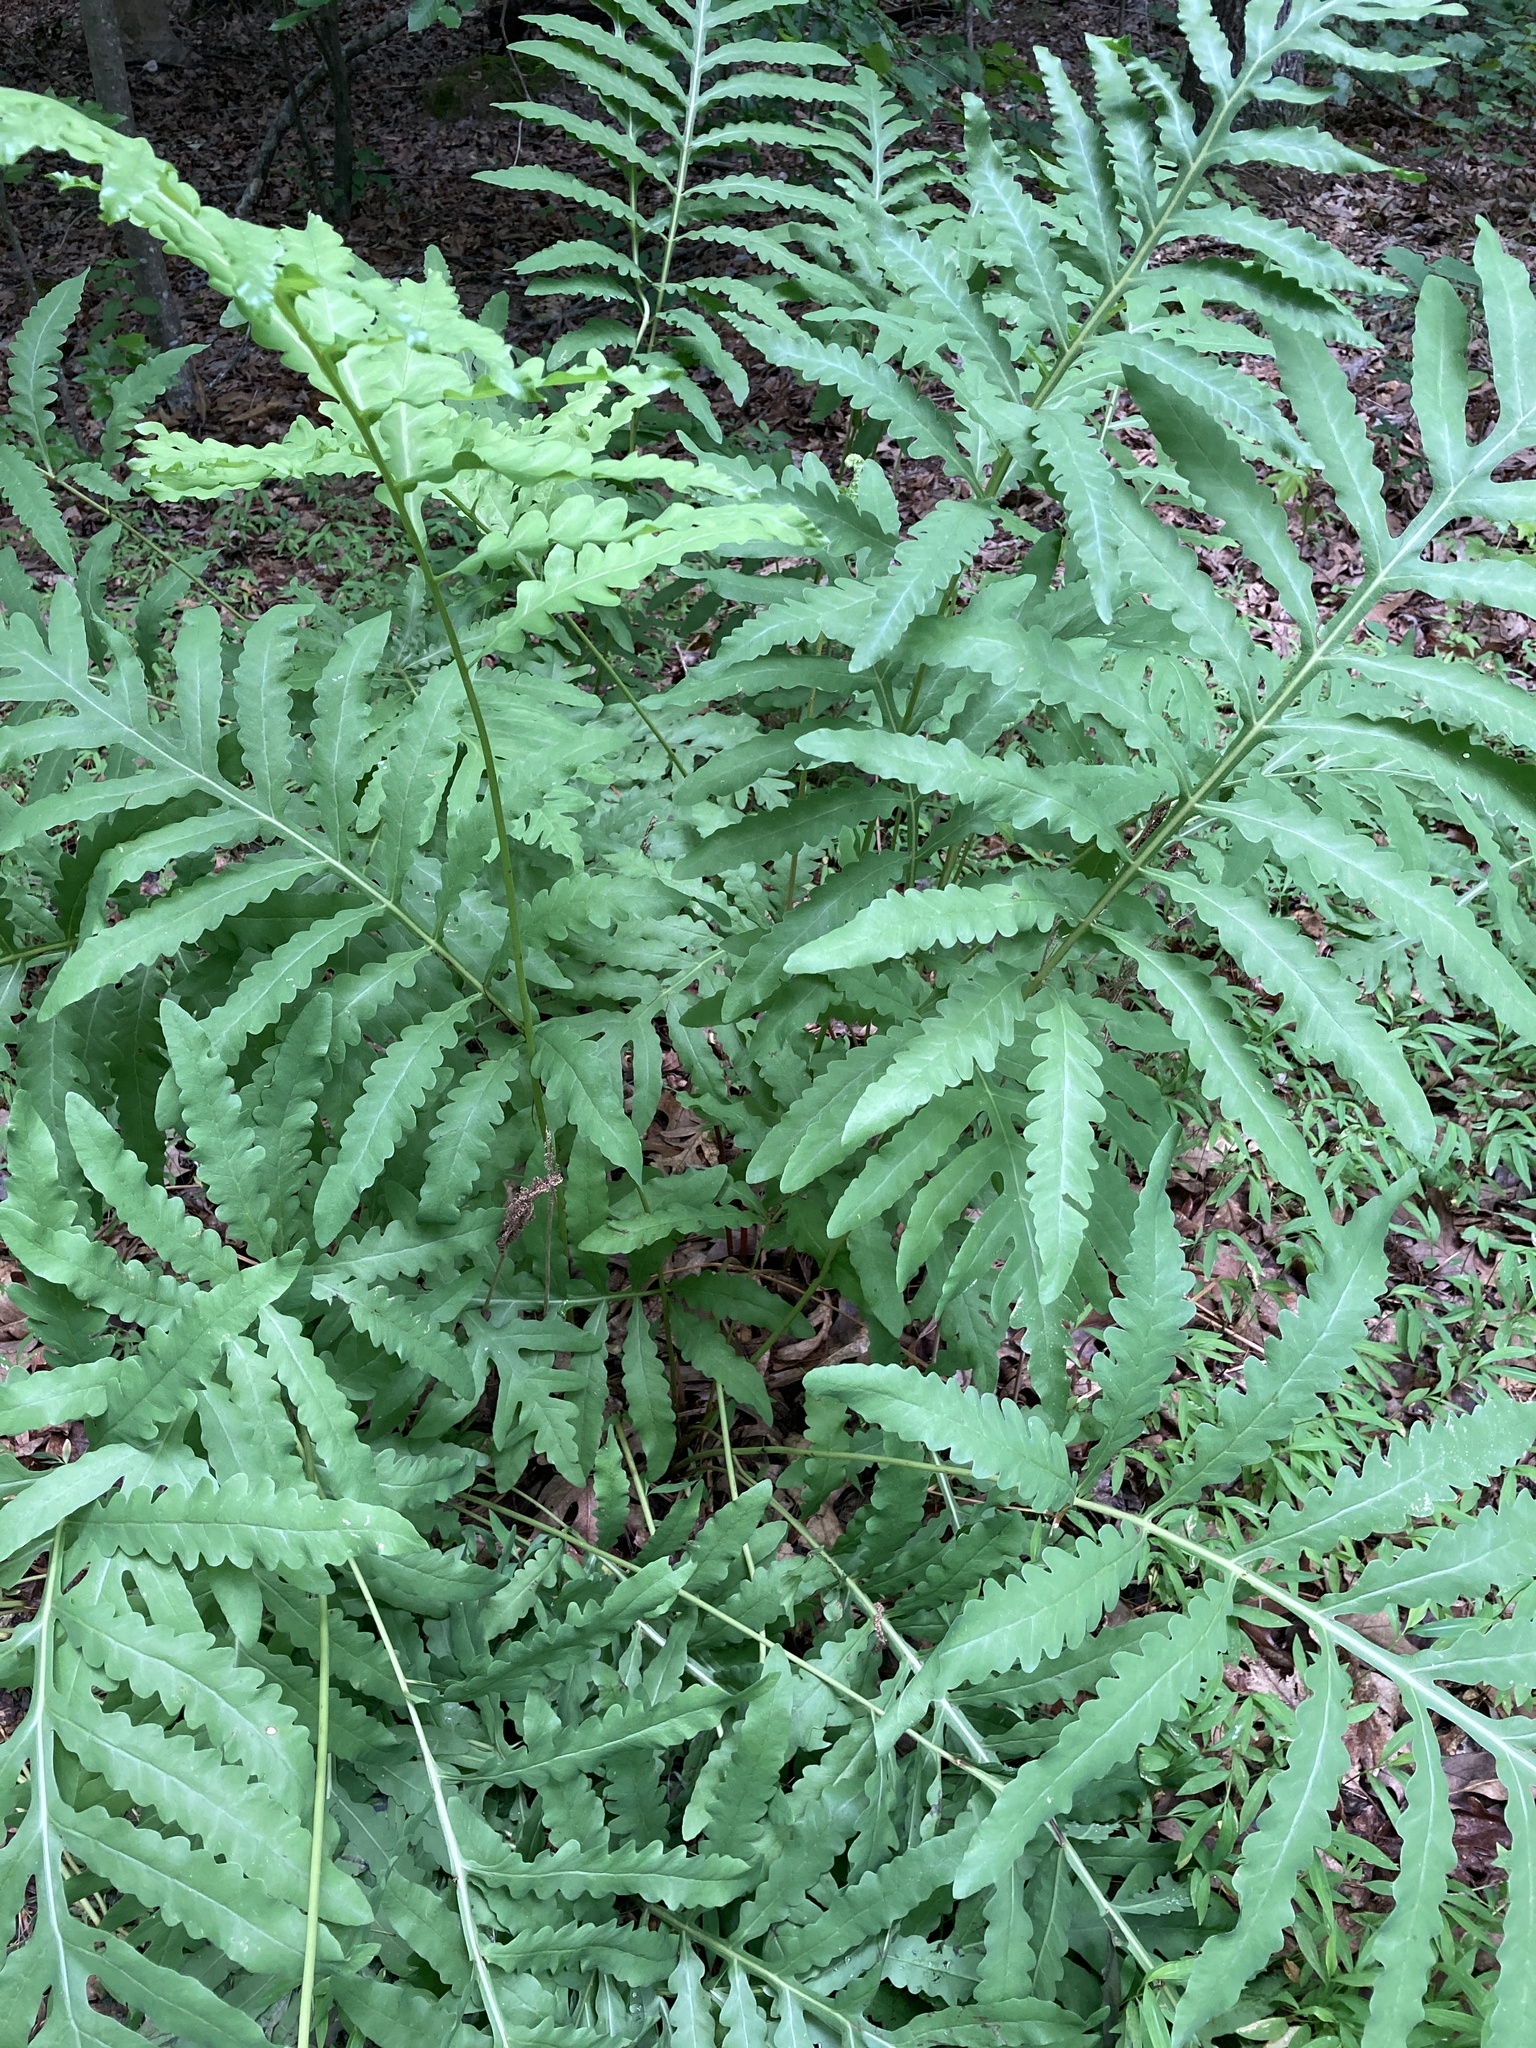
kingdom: Plantae
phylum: Tracheophyta
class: Polypodiopsida
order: Polypodiales
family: Onocleaceae
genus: Onoclea
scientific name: Onoclea sensibilis
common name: Sensitive fern
